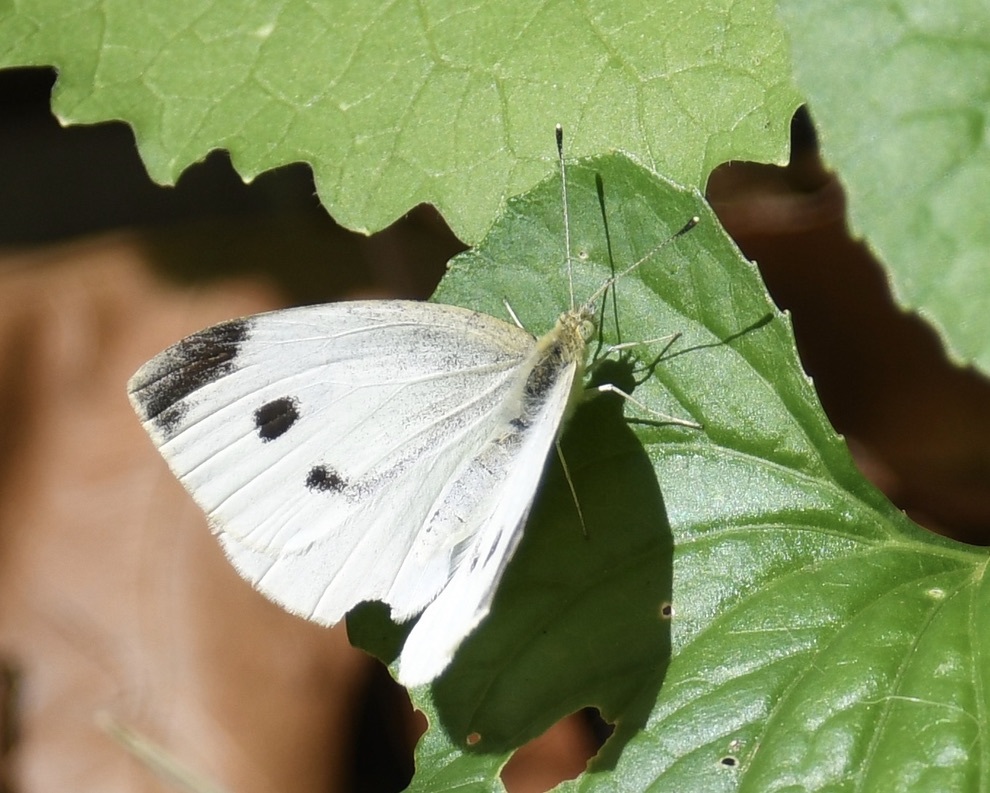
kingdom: Animalia
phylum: Arthropoda
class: Insecta
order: Lepidoptera
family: Pieridae
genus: Pieris
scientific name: Pieris rapae
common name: Small white
